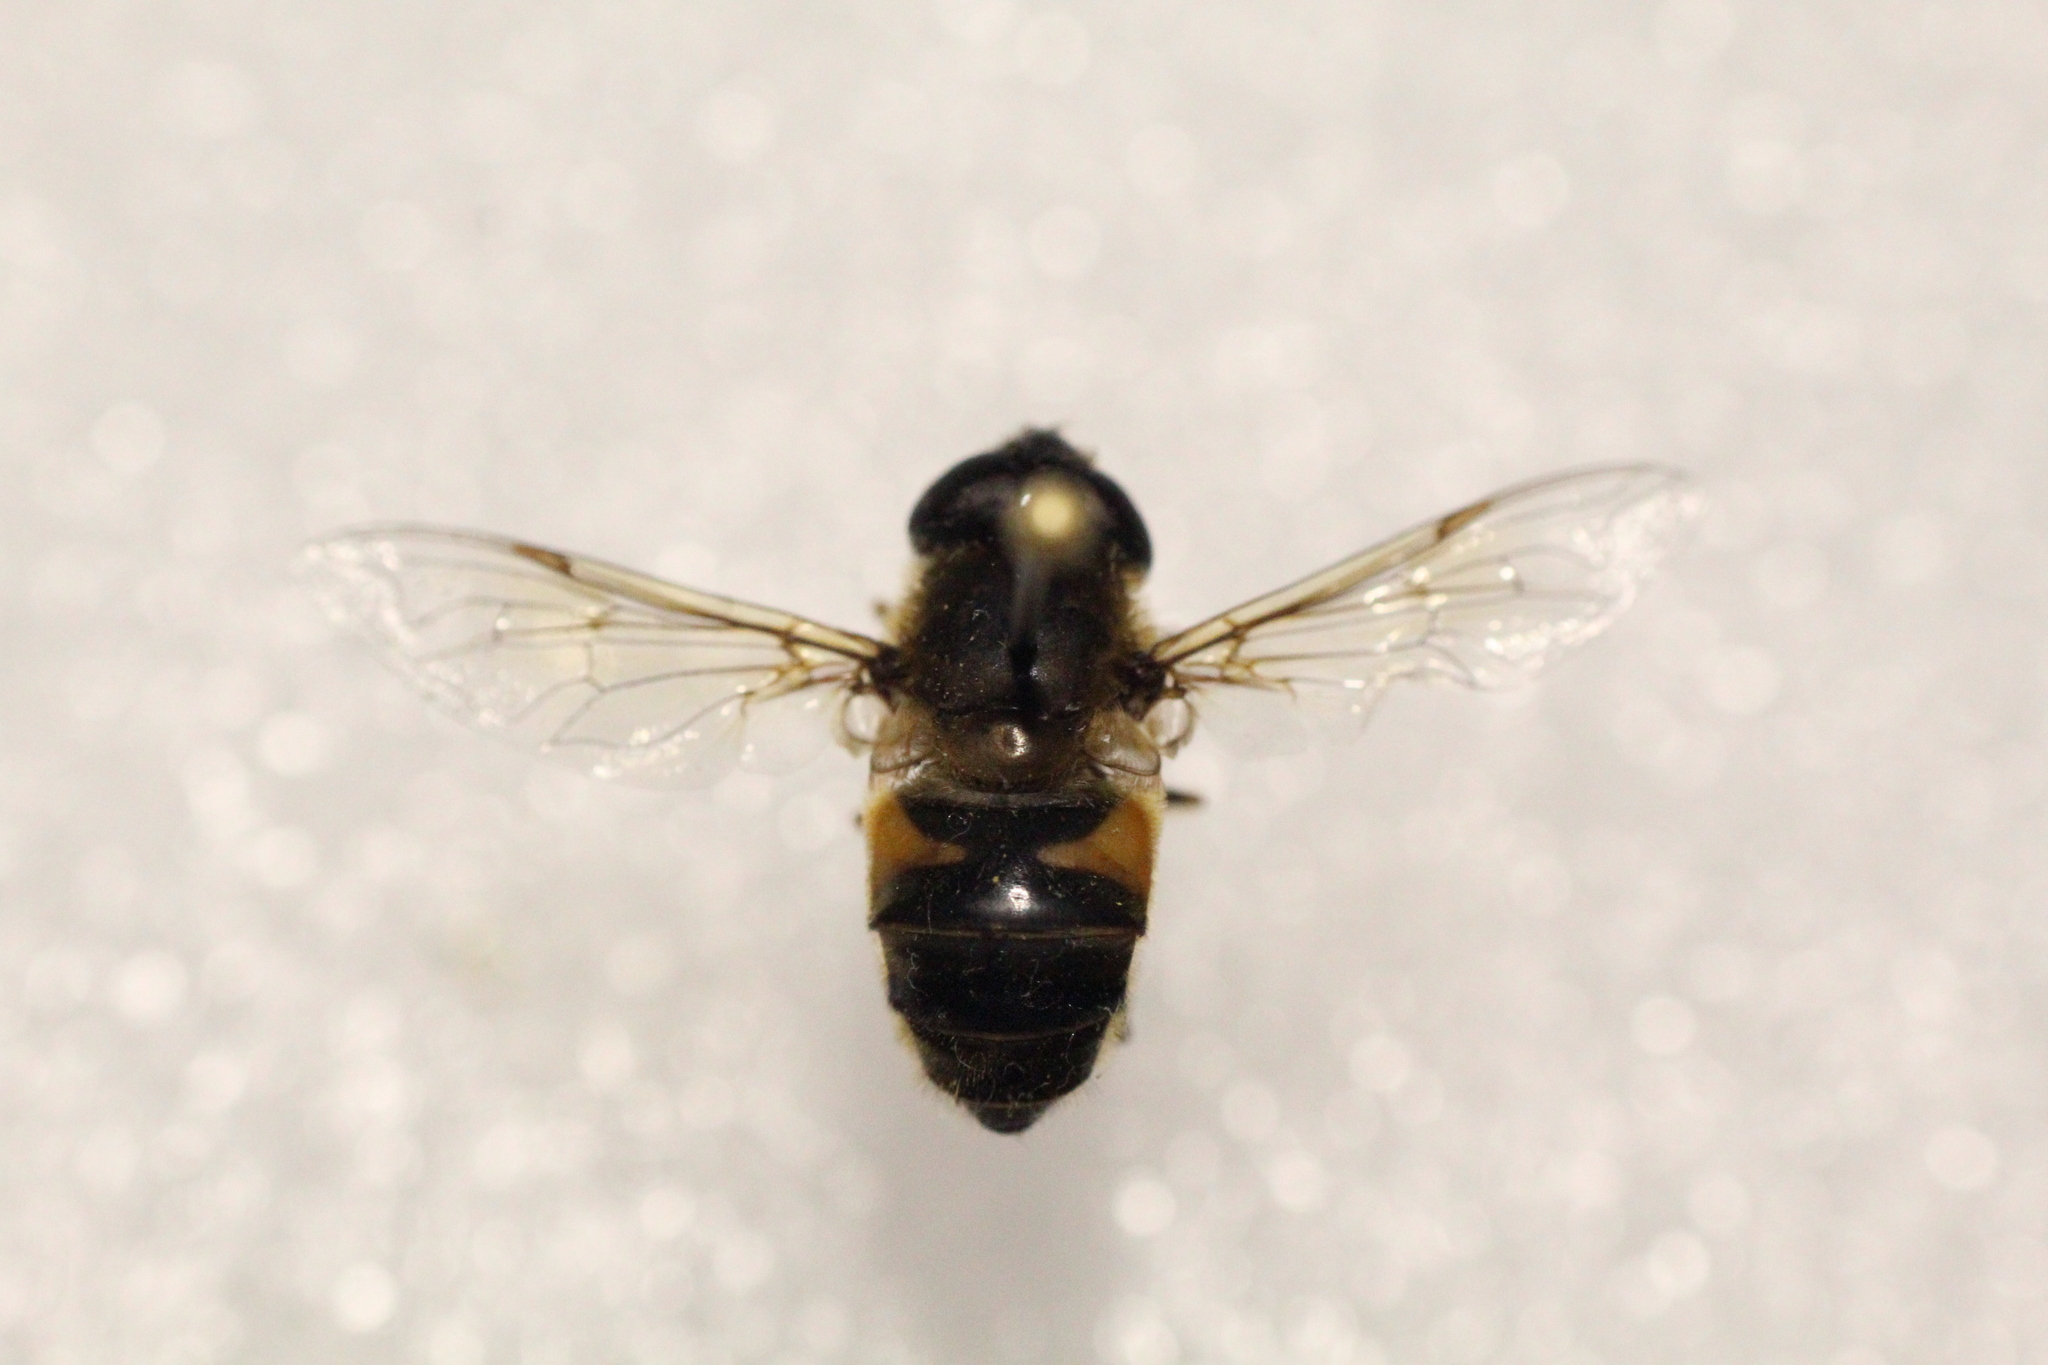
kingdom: Animalia
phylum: Arthropoda
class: Insecta
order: Diptera
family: Syrphidae
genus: Eristalis
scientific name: Eristalis pertinax
